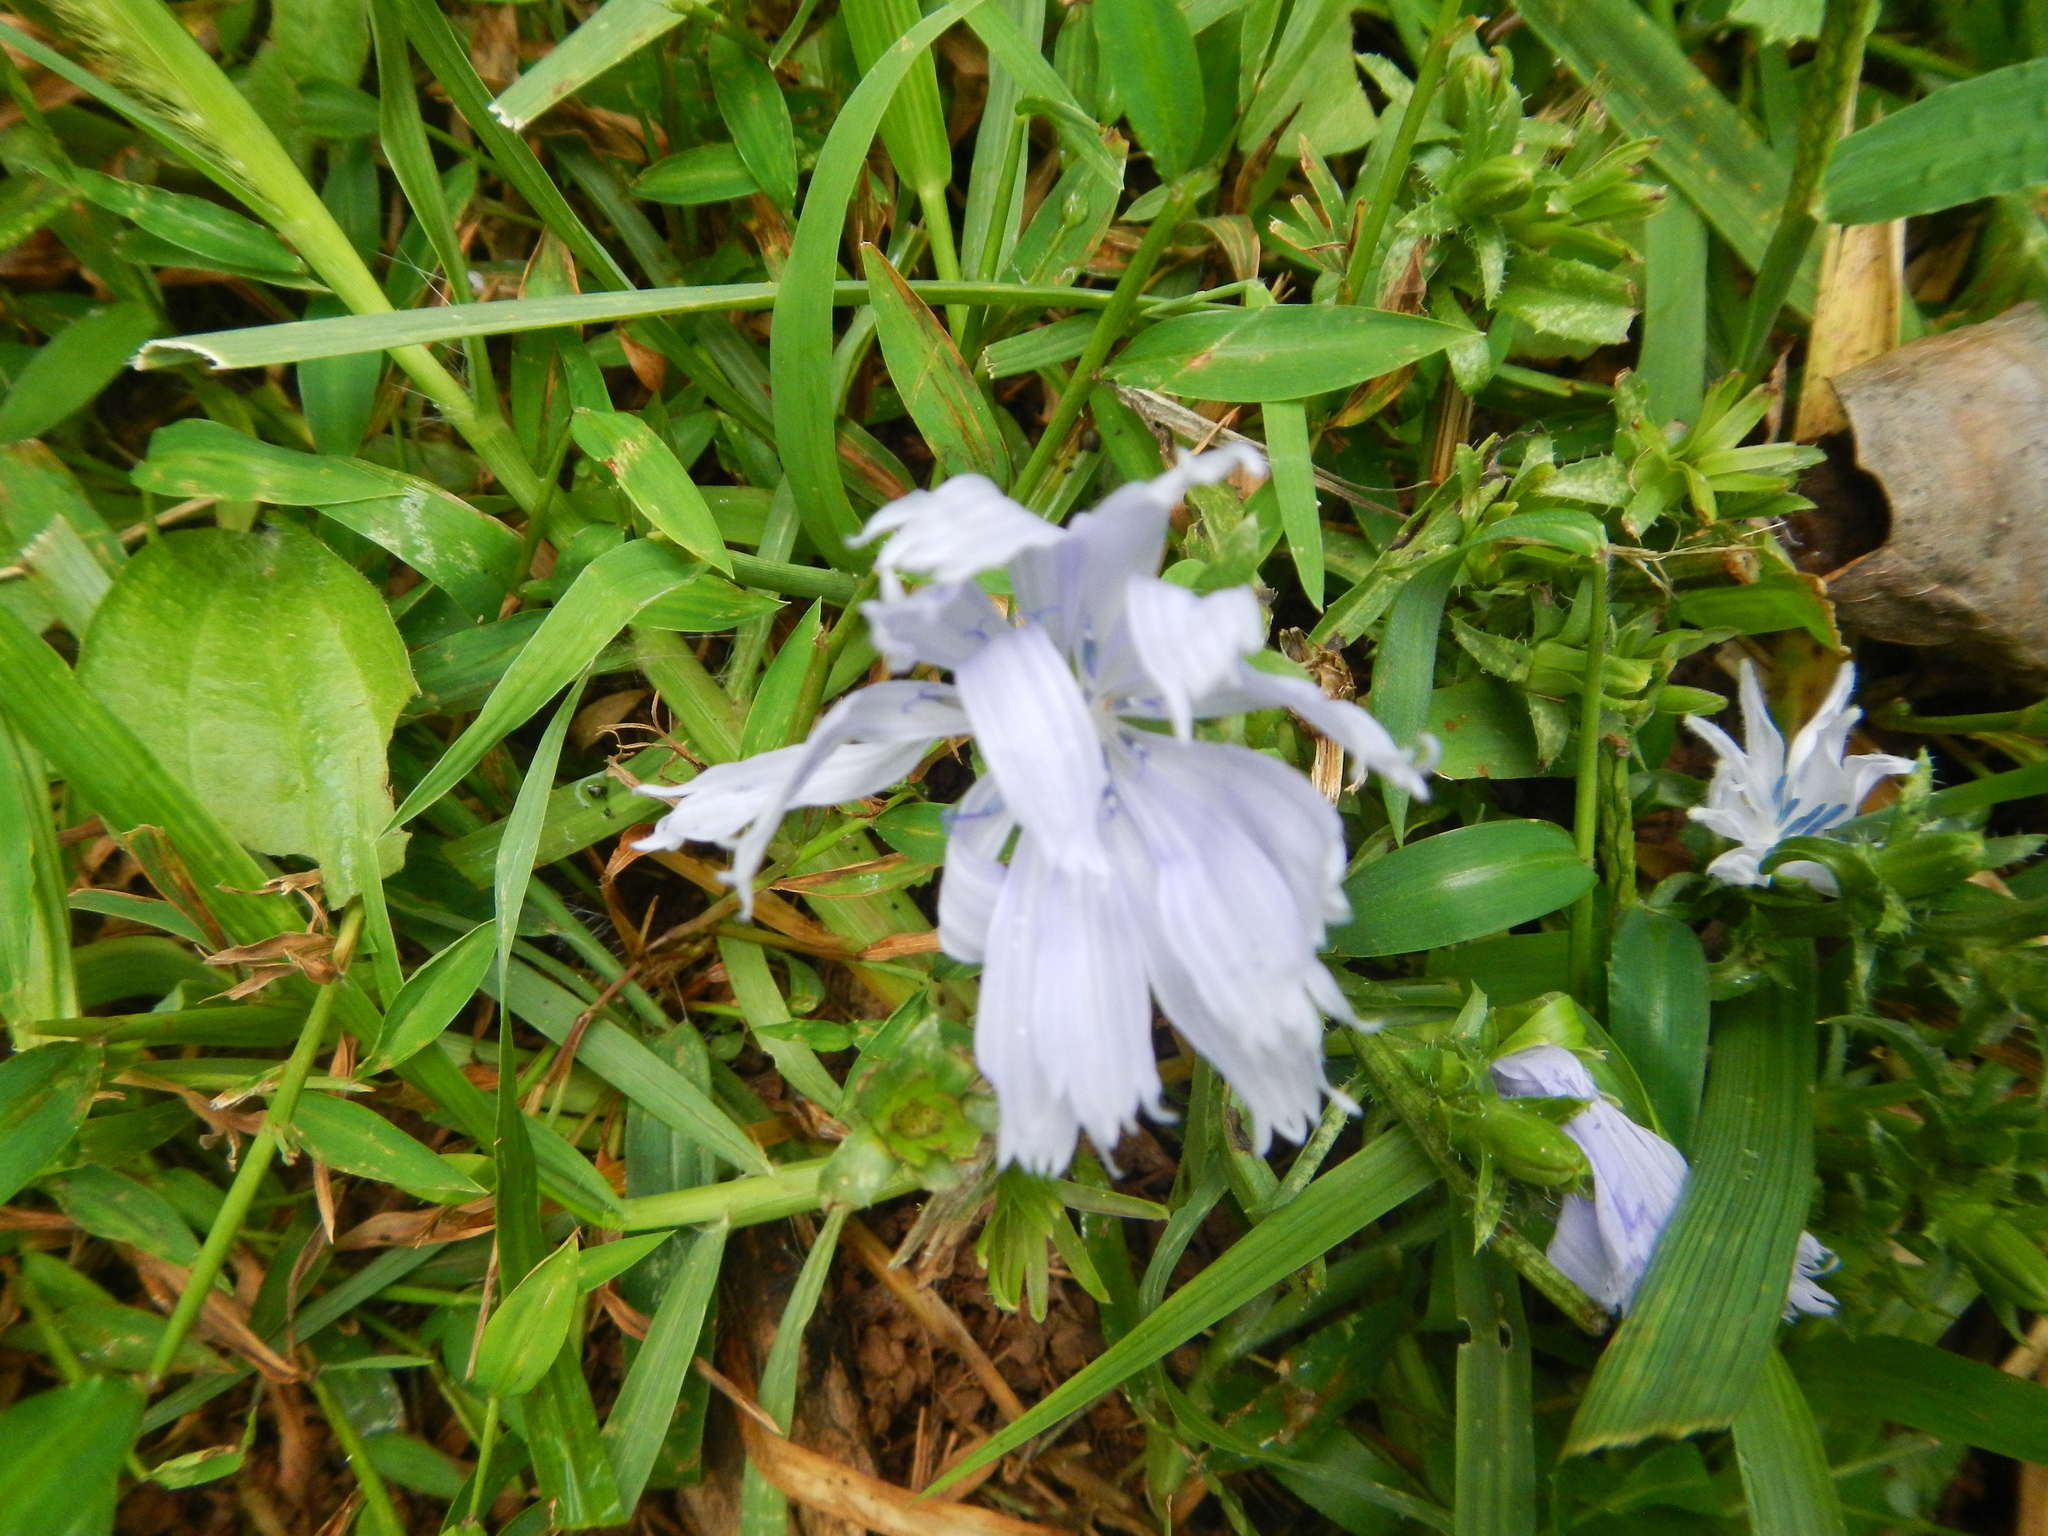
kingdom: Plantae
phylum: Tracheophyta
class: Magnoliopsida
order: Asterales
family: Asteraceae
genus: Cichorium
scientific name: Cichorium intybus
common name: Chicory
